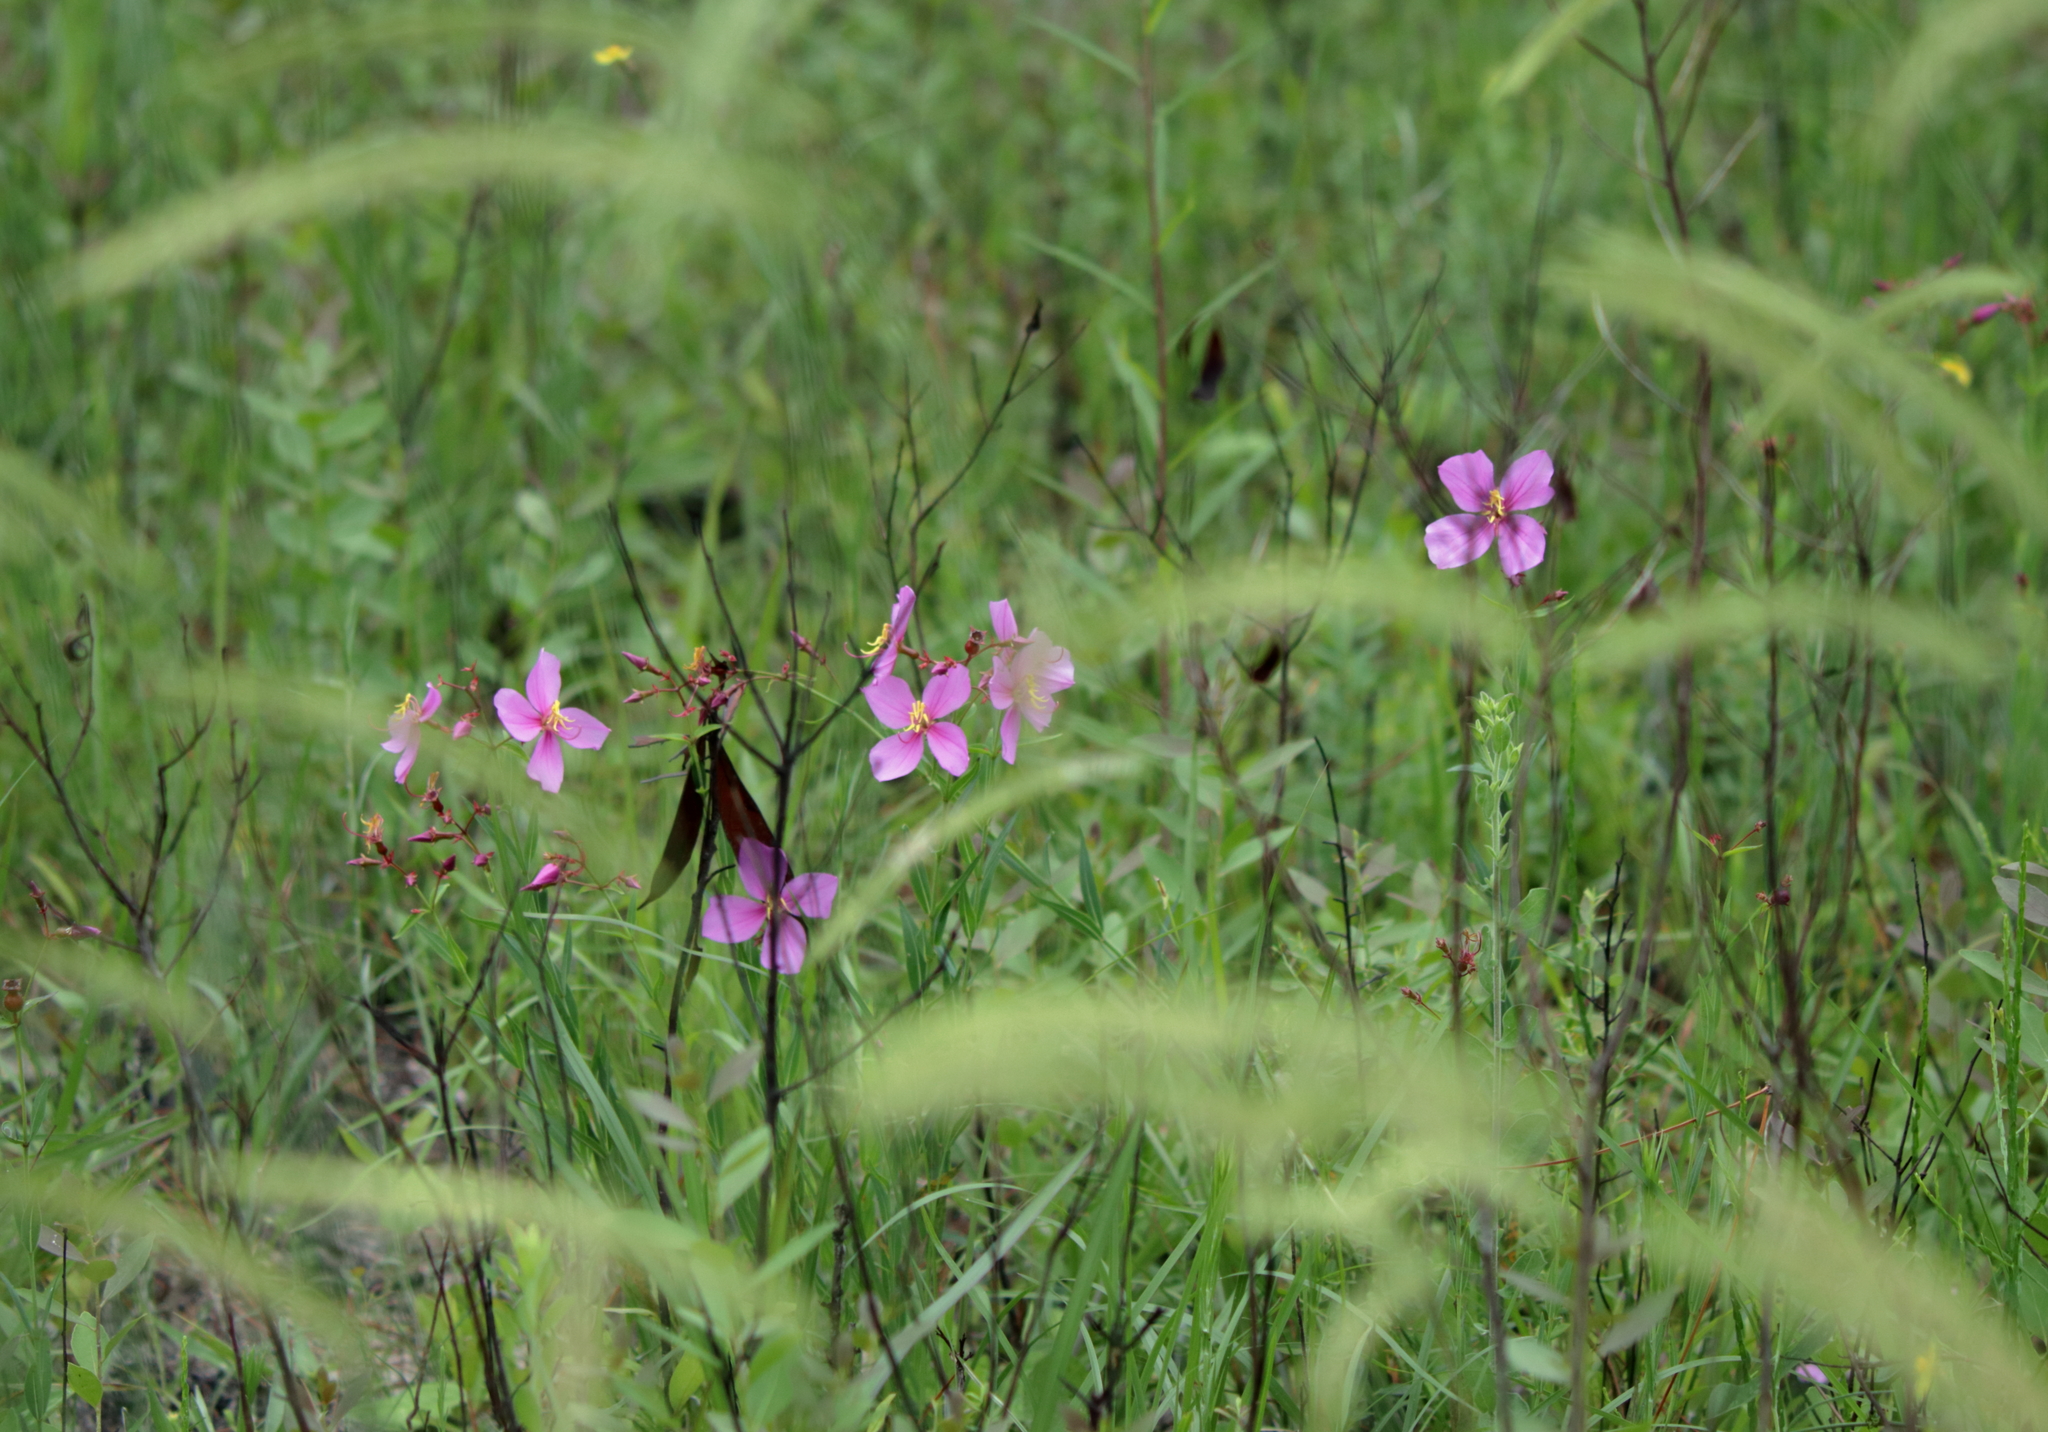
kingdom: Plantae
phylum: Tracheophyta
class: Magnoliopsida
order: Myrtales
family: Melastomataceae
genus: Rhexia
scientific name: Rhexia alifanus
